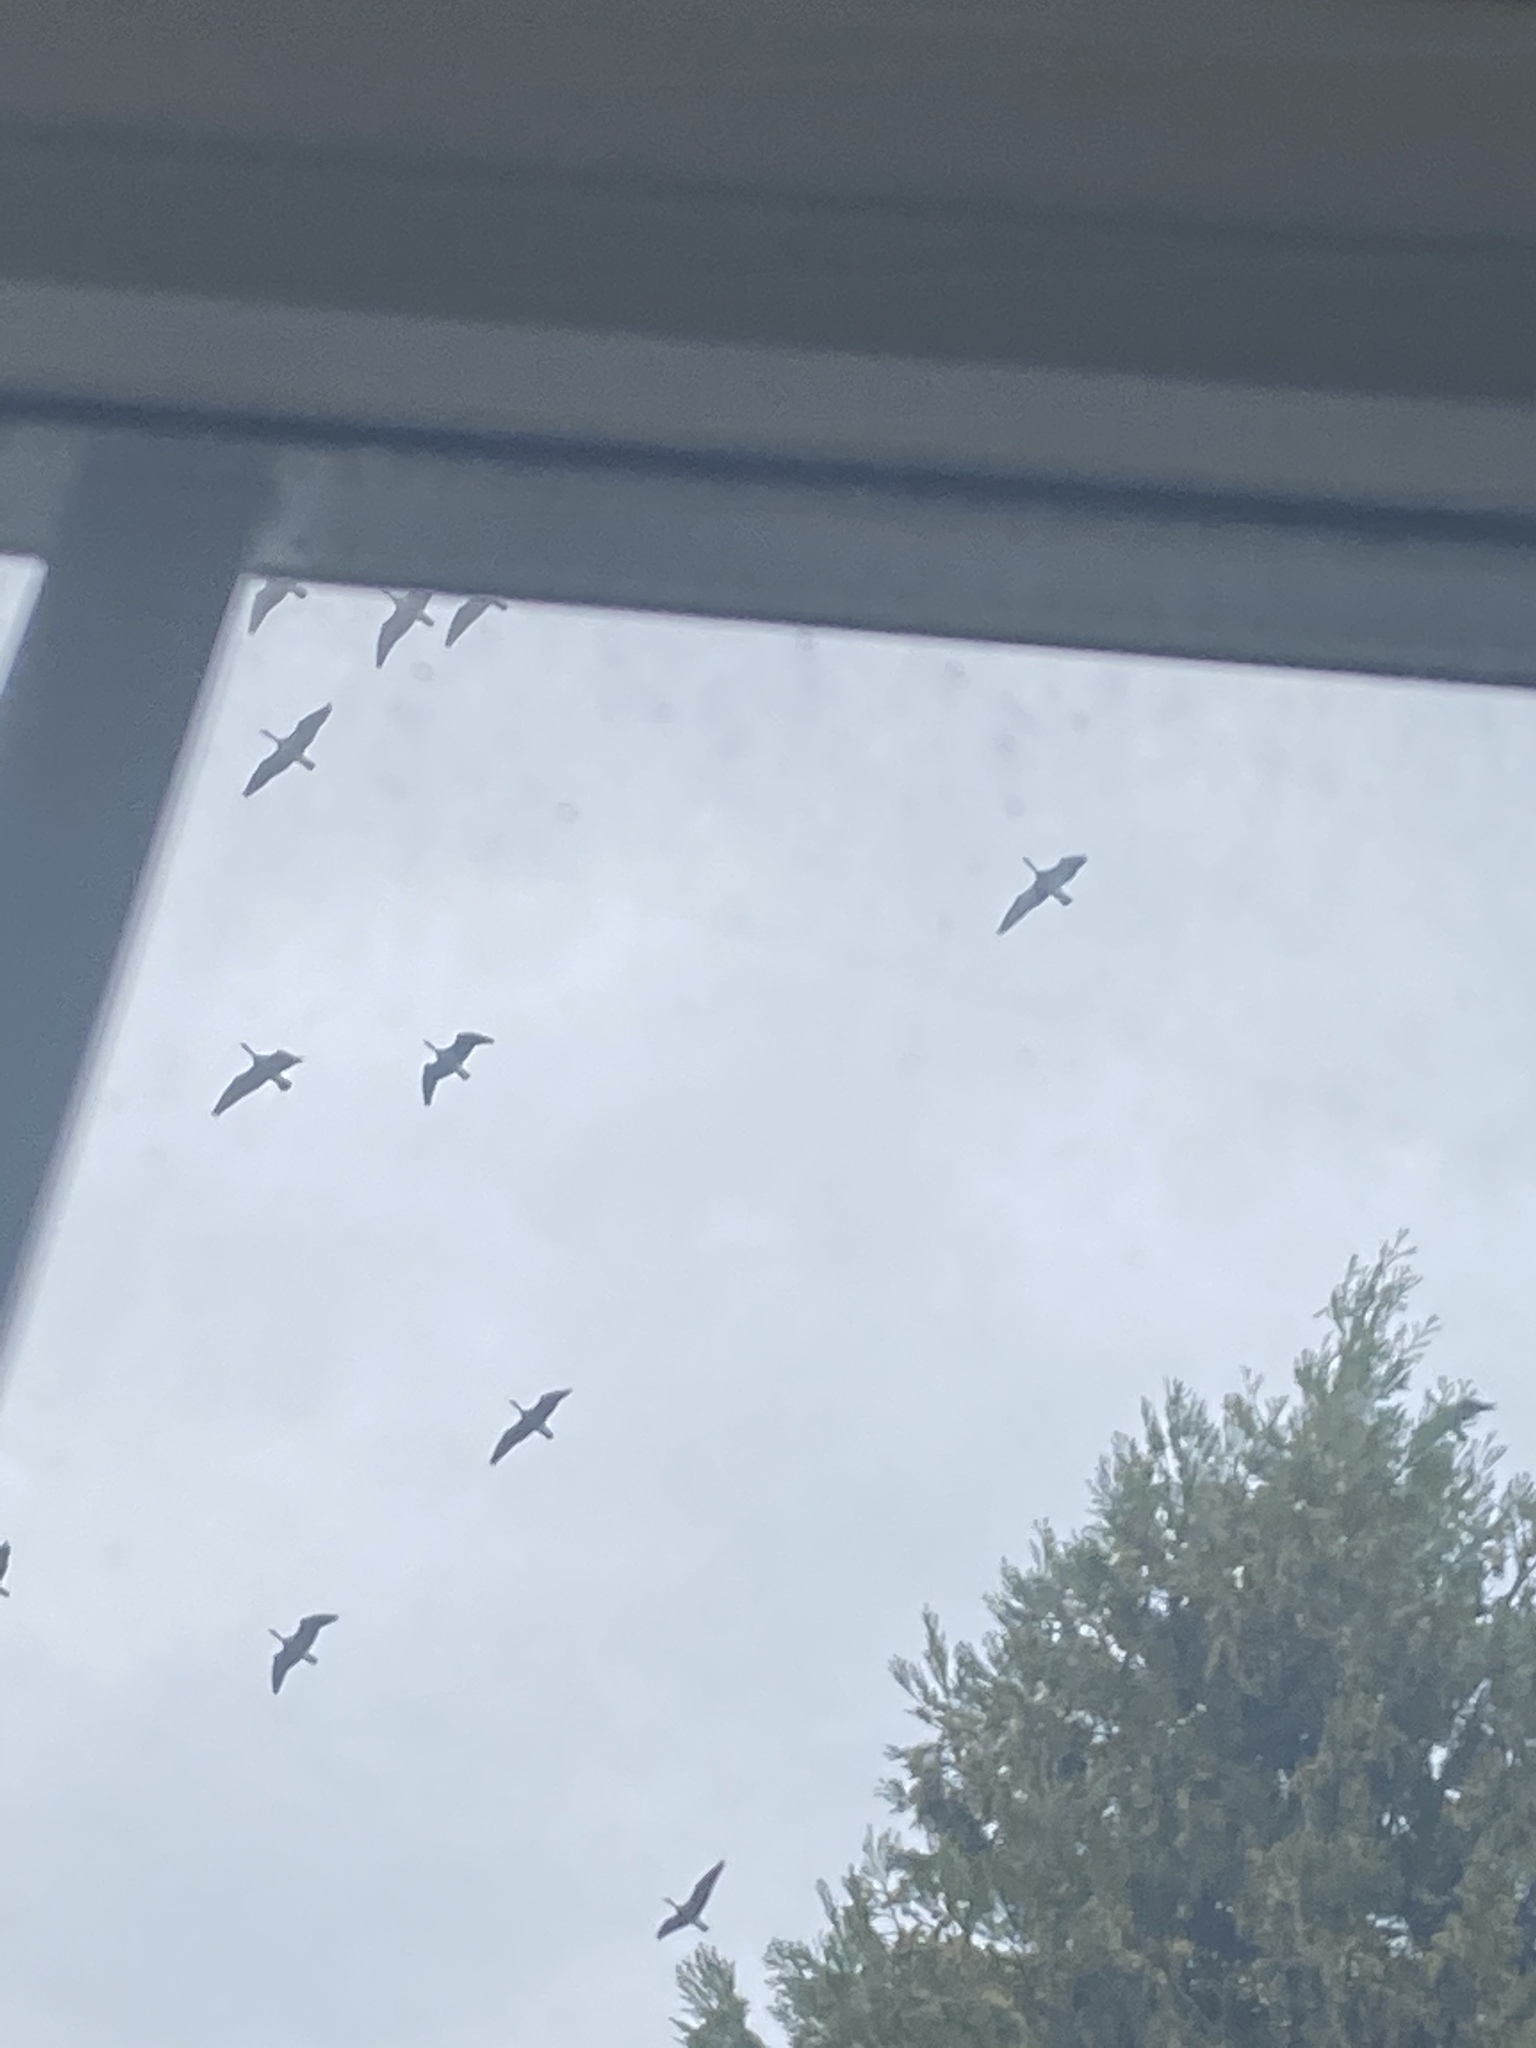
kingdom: Animalia
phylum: Chordata
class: Aves
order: Anseriformes
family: Anatidae
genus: Branta
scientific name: Branta canadensis
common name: Canada goose
